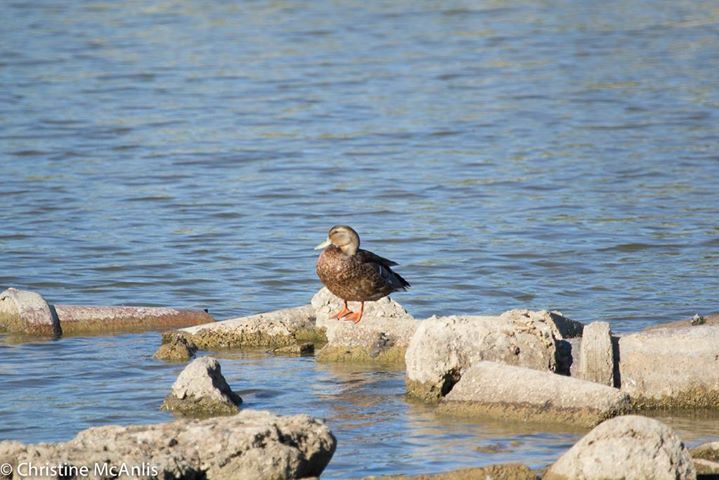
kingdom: Animalia
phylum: Chordata
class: Aves
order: Anseriformes
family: Anatidae
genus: Anas
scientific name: Anas platyrhynchos
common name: Mallard
